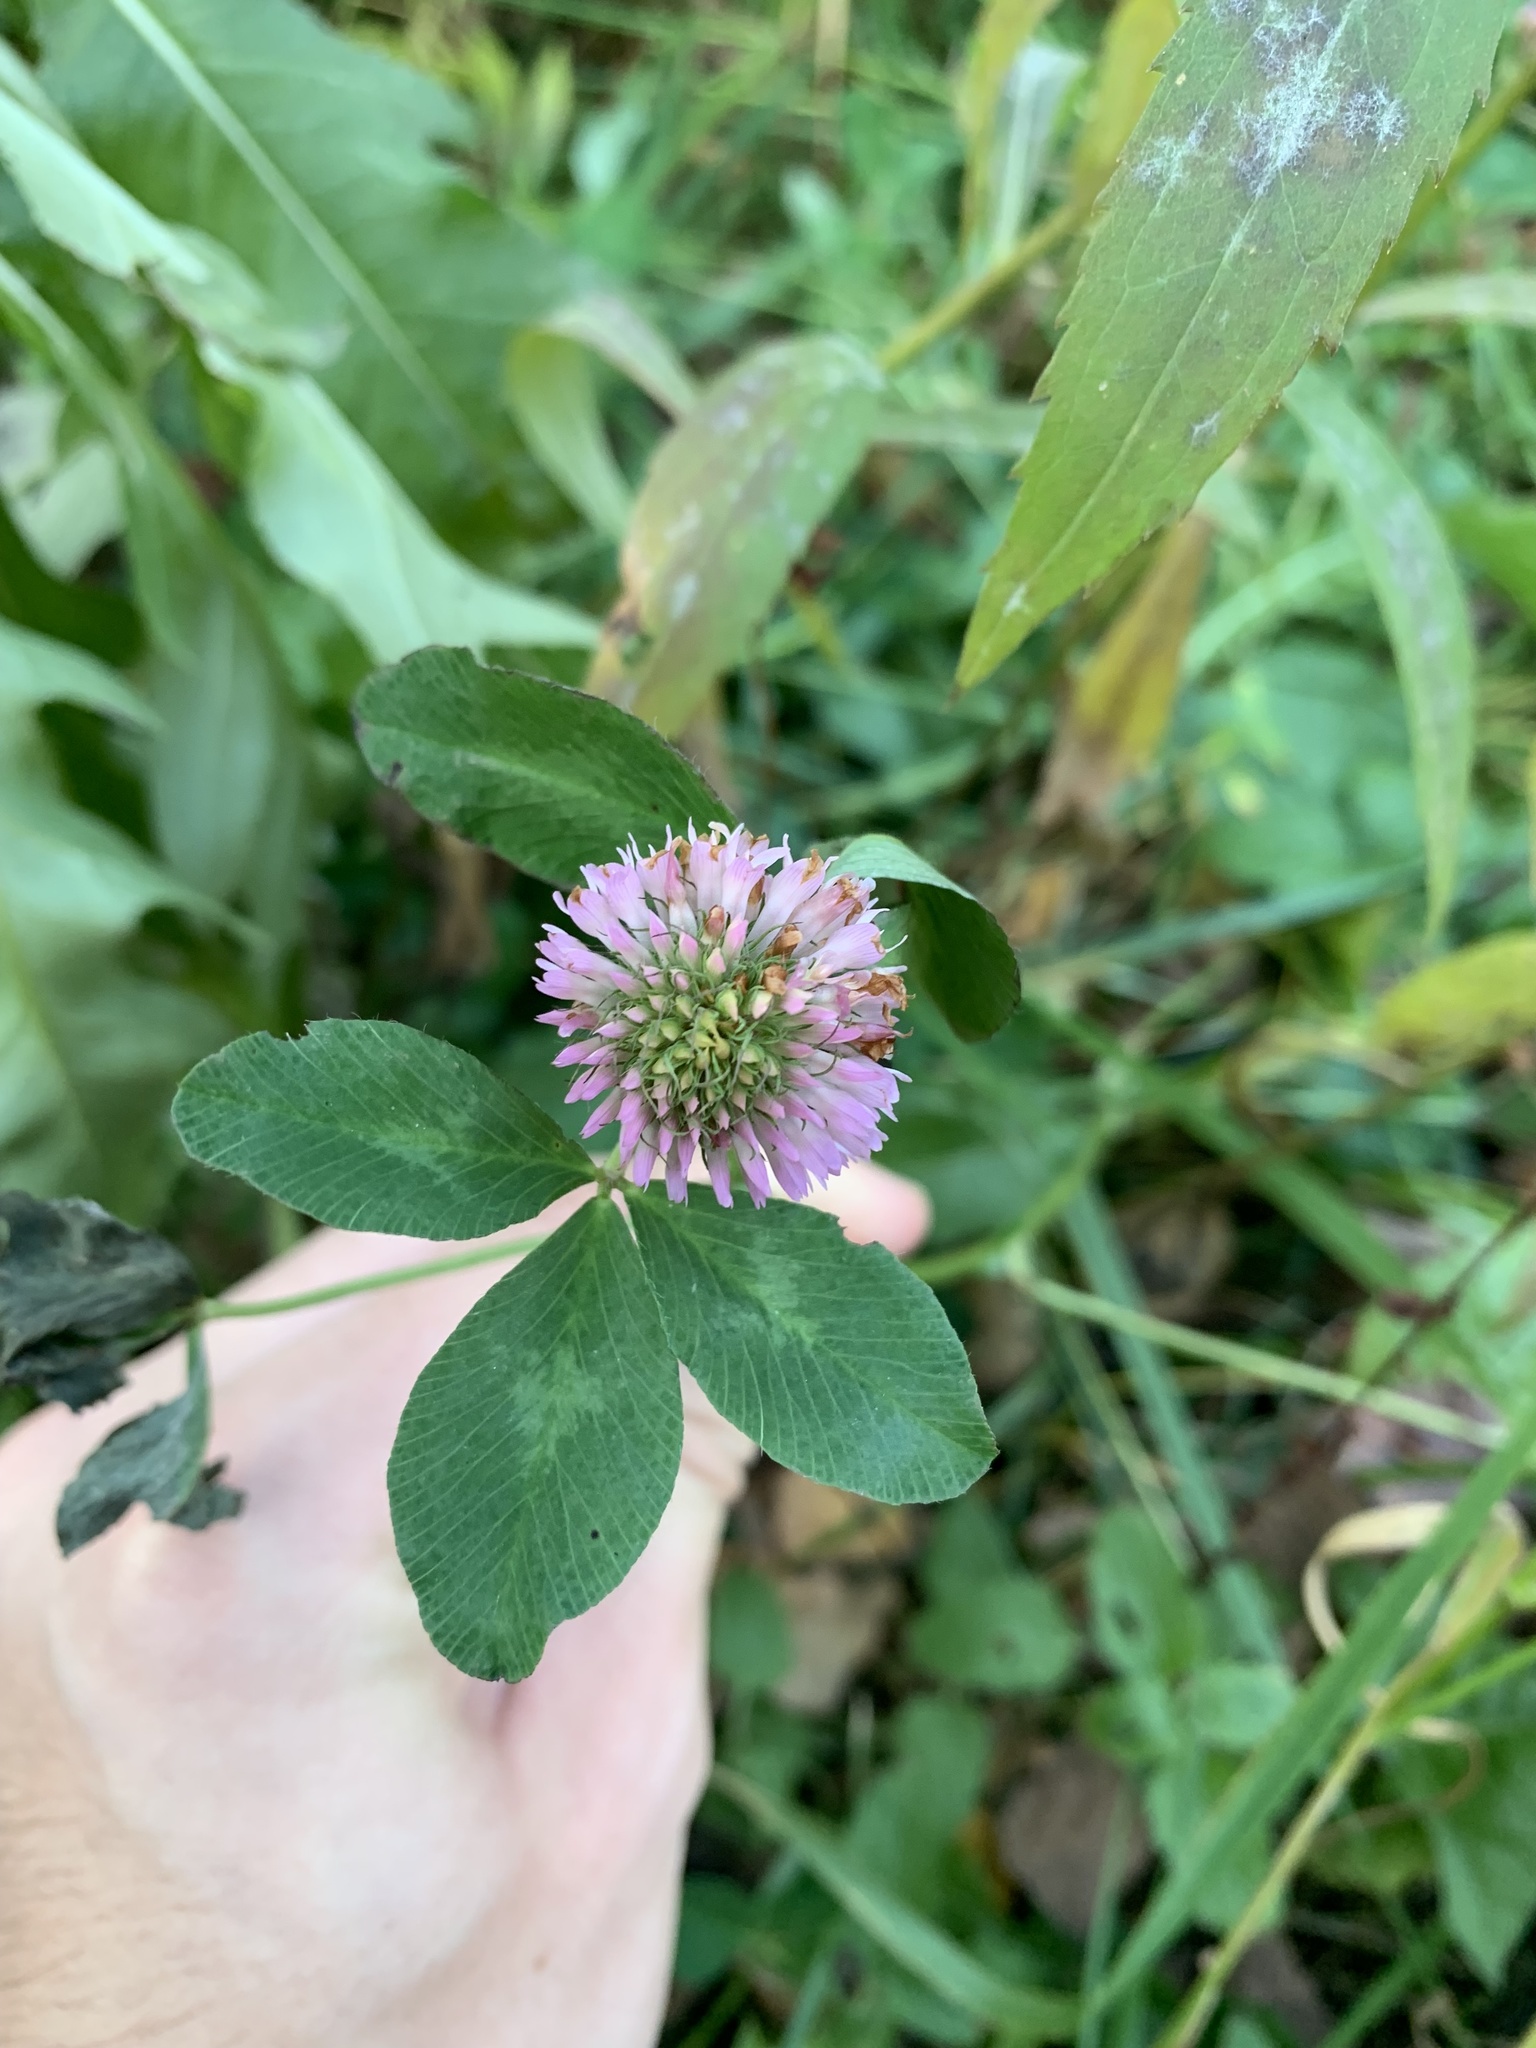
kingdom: Plantae
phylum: Tracheophyta
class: Magnoliopsida
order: Fabales
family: Fabaceae
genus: Trifolium
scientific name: Trifolium pratense
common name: Red clover
